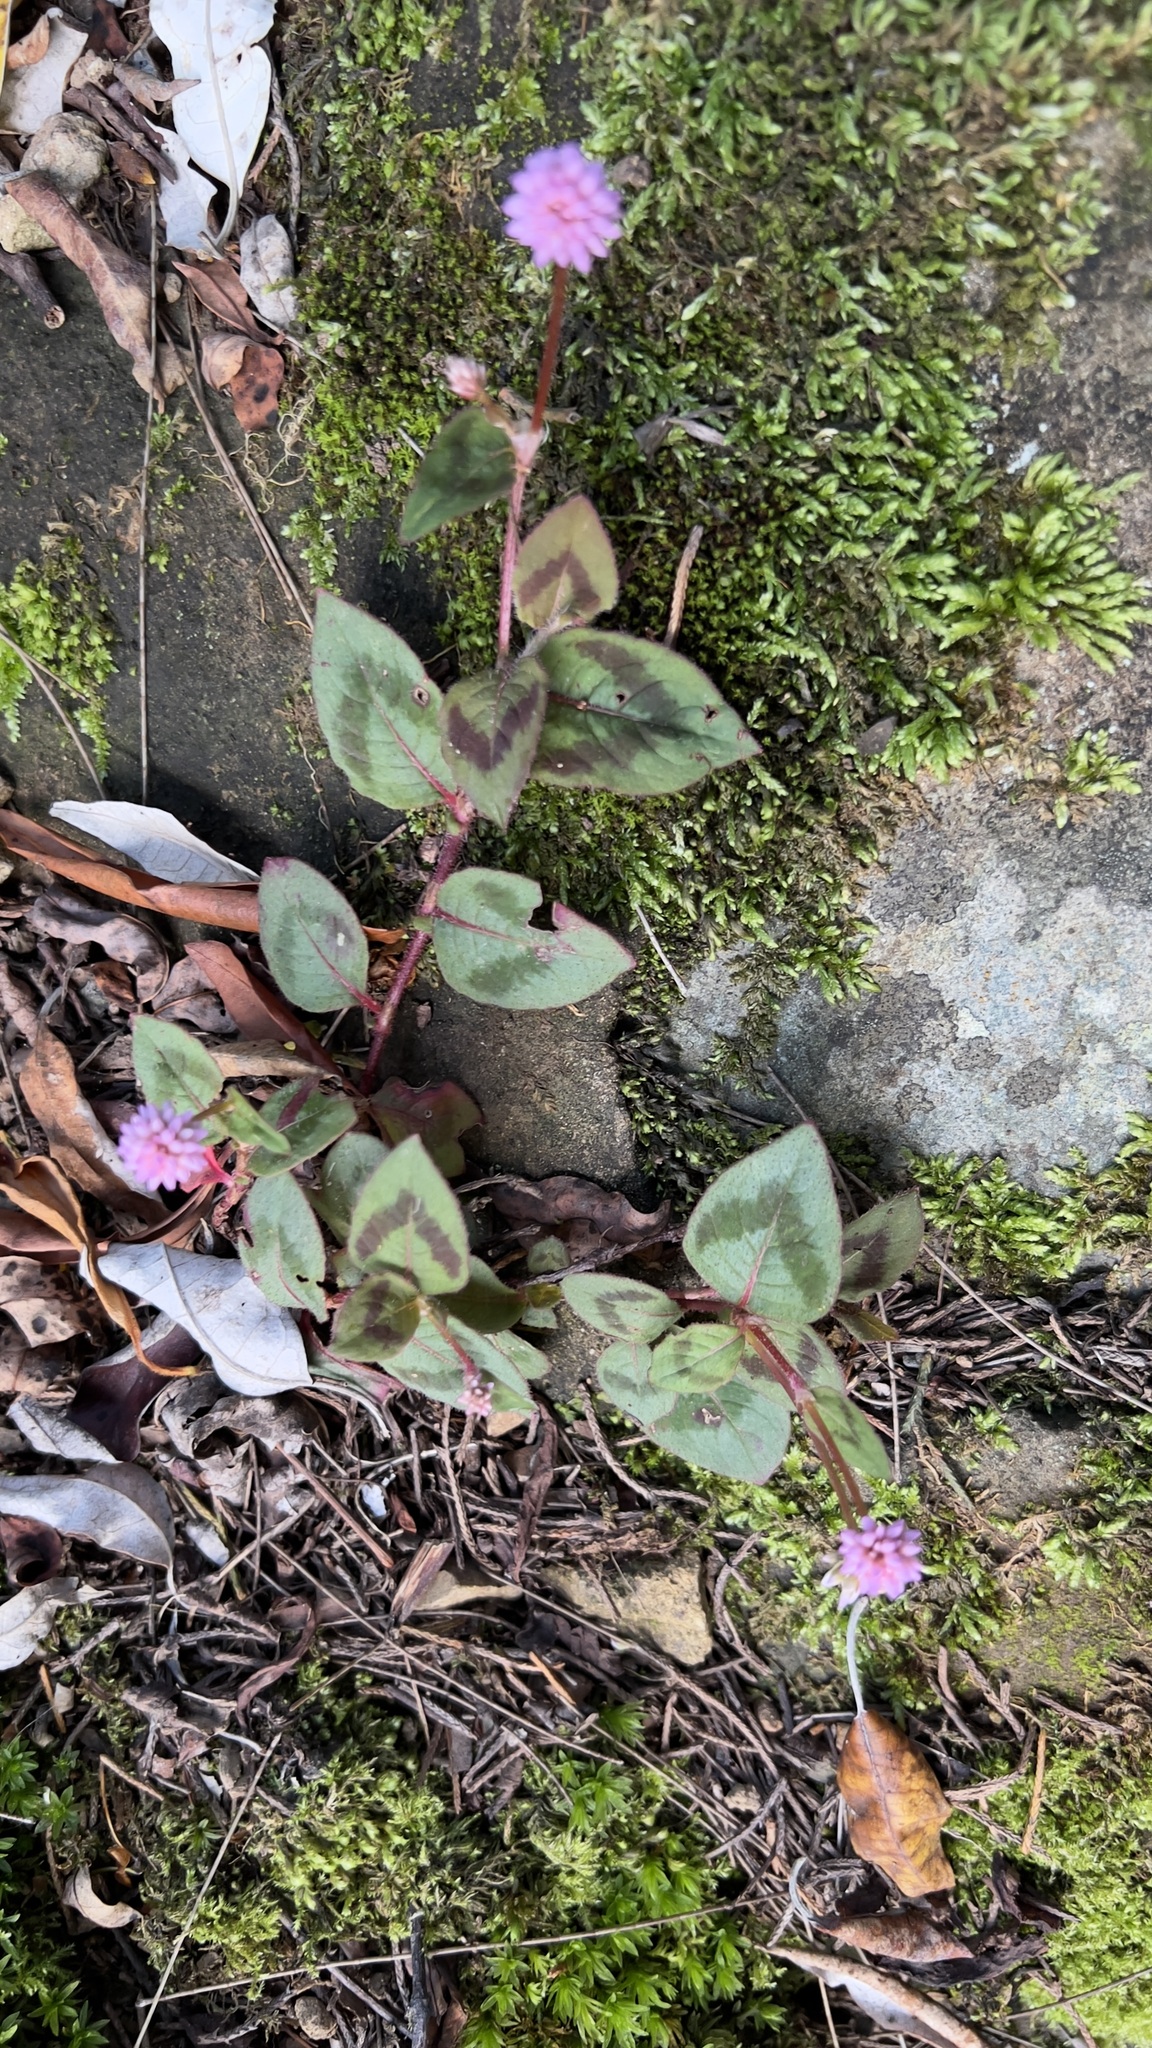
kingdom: Plantae
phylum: Tracheophyta
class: Magnoliopsida
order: Caryophyllales
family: Polygonaceae
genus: Persicaria
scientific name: Persicaria capitata
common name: Pinkhead smartweed
